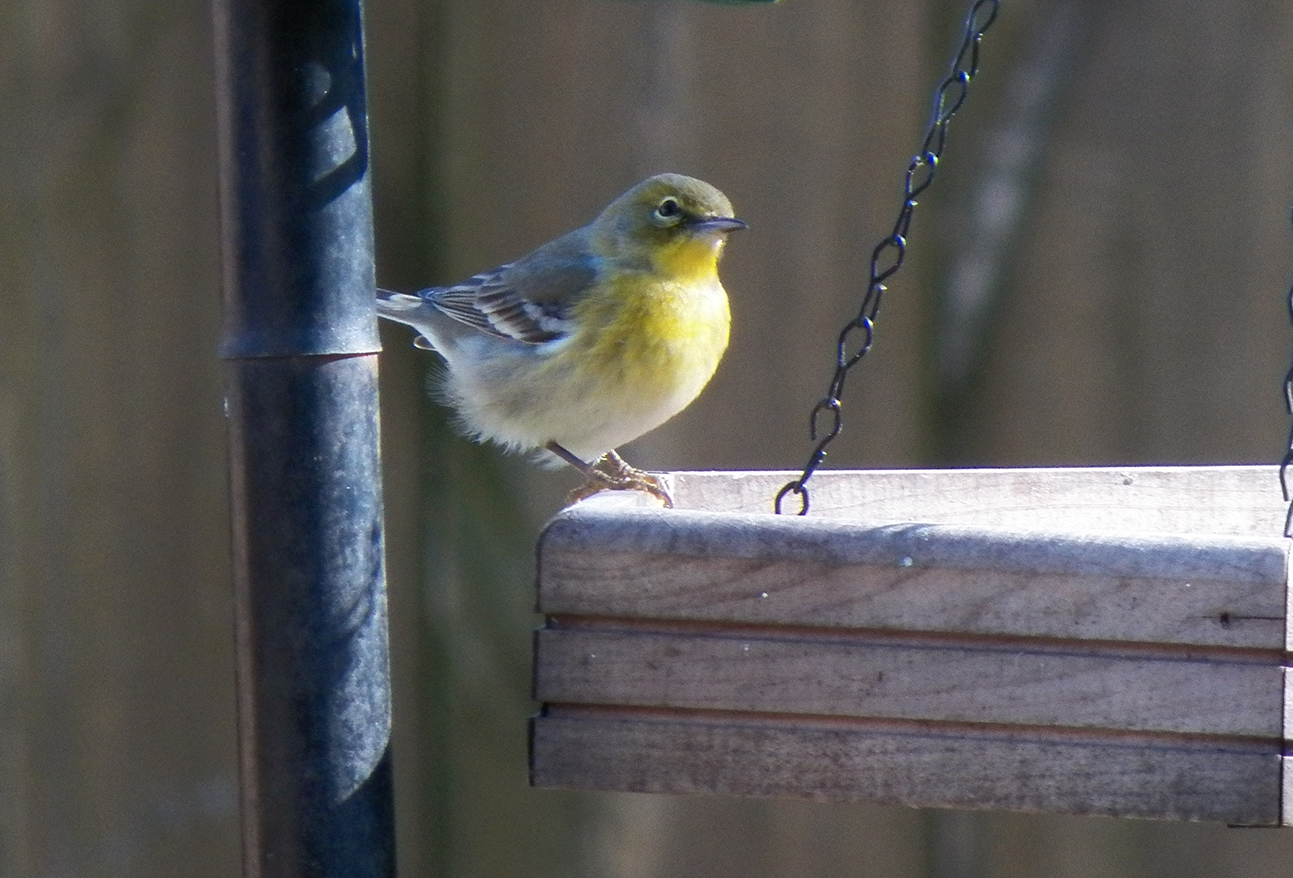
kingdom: Animalia
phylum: Chordata
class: Aves
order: Passeriformes
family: Parulidae
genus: Setophaga
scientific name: Setophaga pinus
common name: Pine warbler
